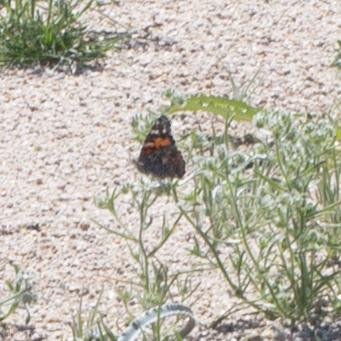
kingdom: Animalia
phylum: Arthropoda
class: Insecta
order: Lepidoptera
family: Nymphalidae
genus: Vanessa
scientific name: Vanessa cardui
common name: Painted lady
